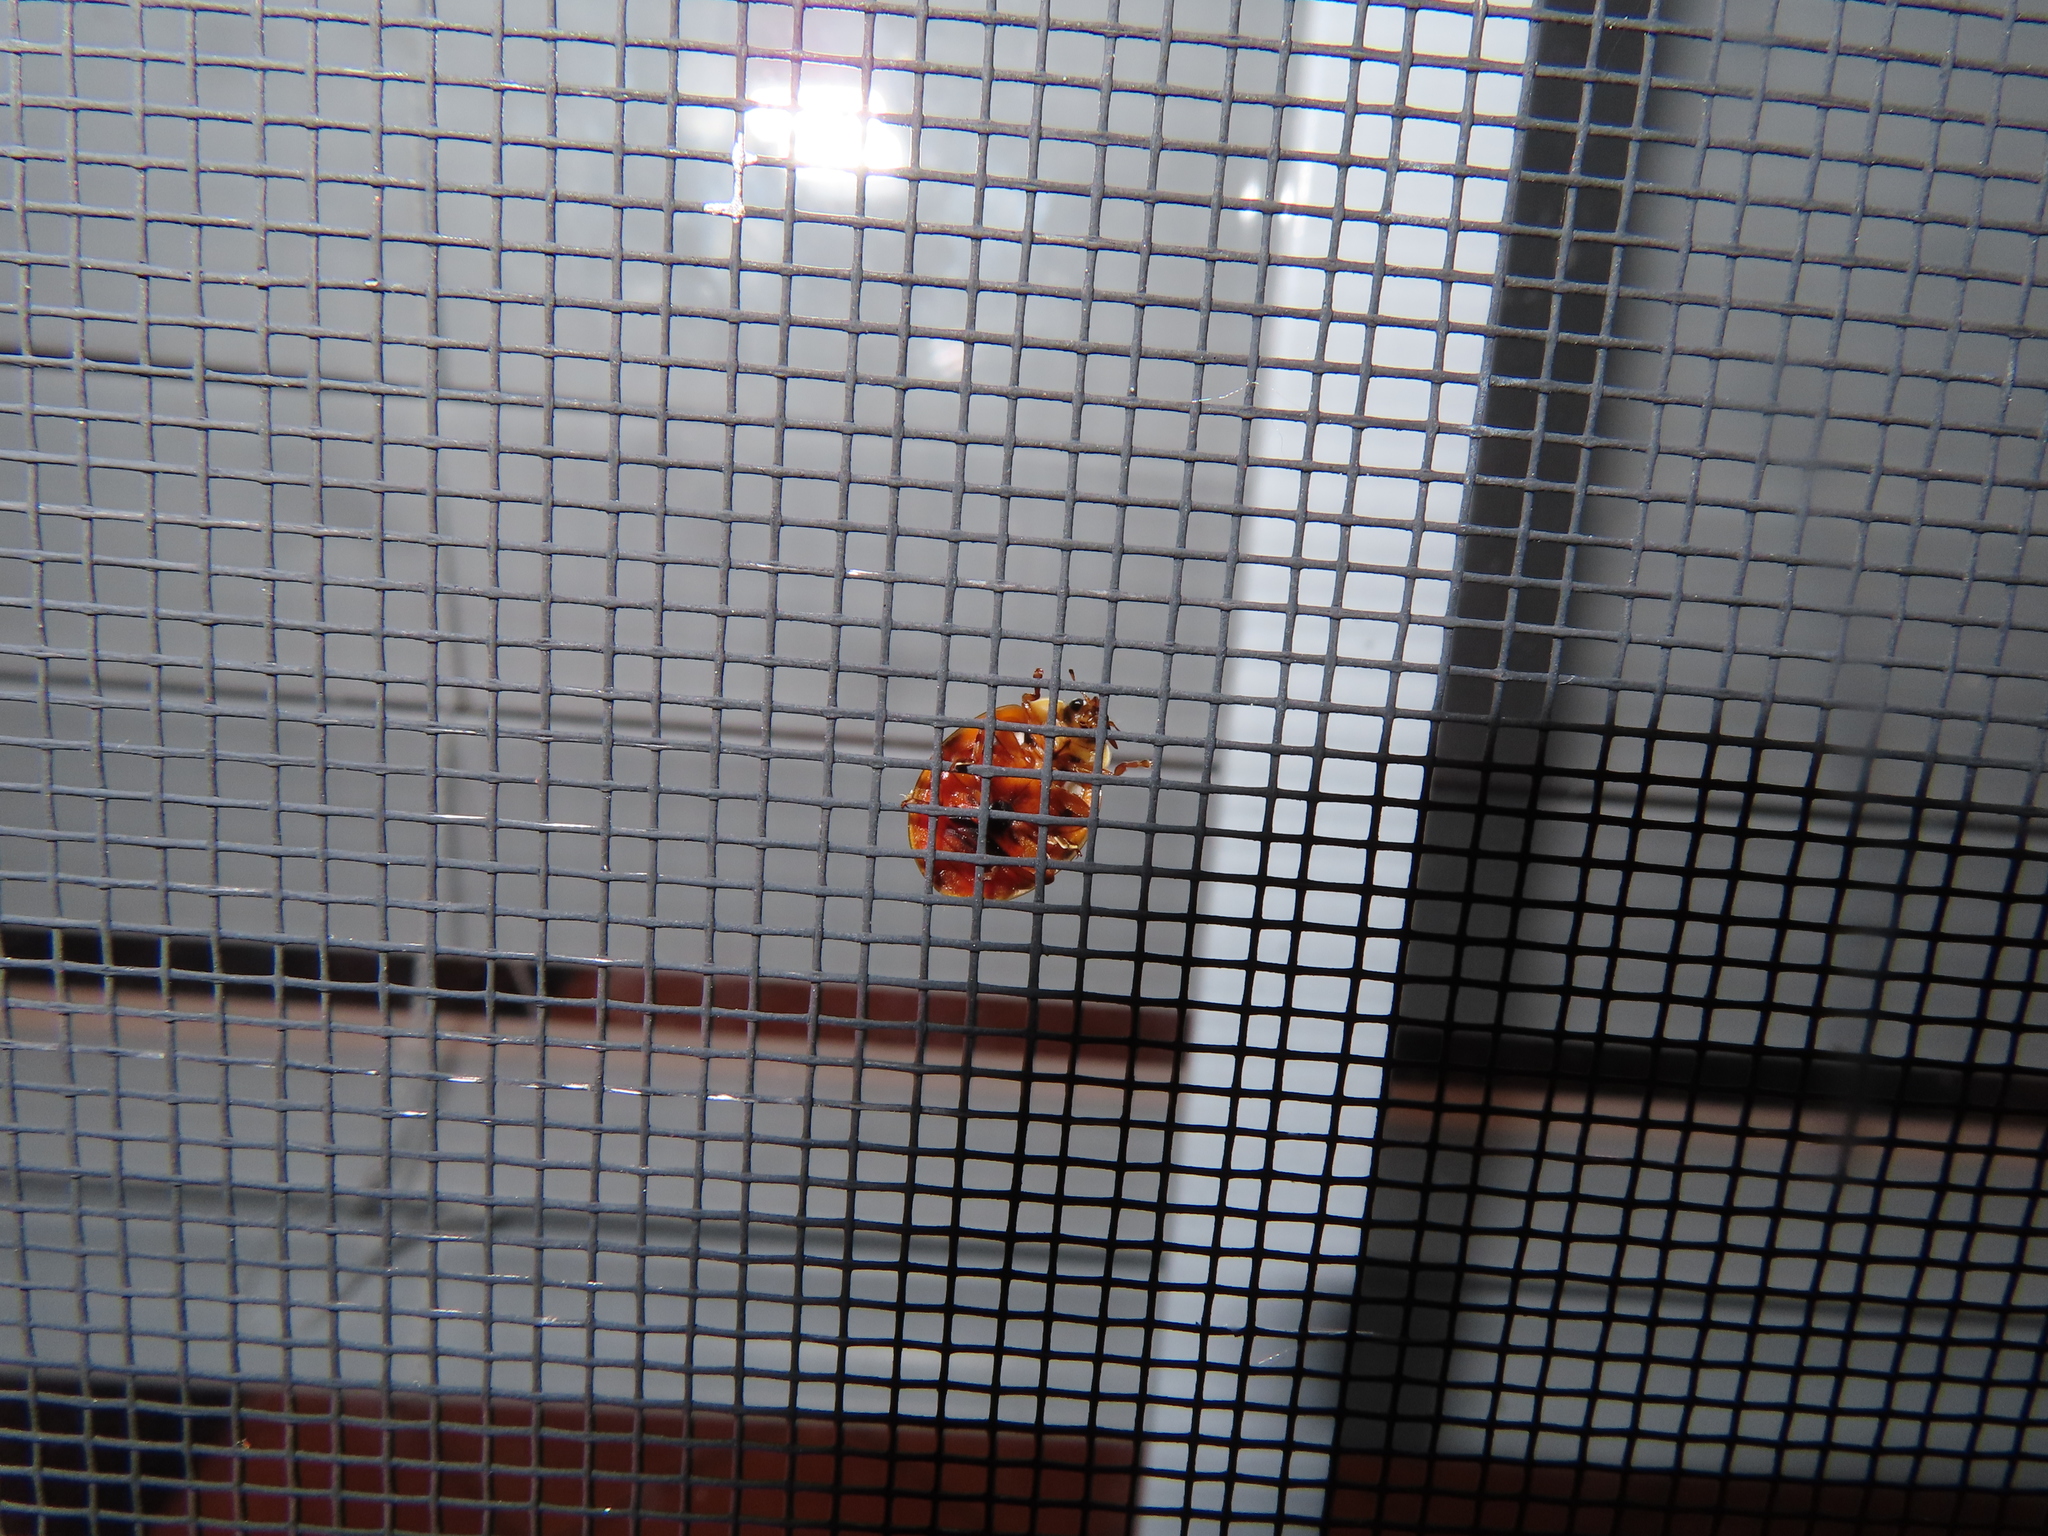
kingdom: Animalia
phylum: Arthropoda
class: Insecta
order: Coleoptera
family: Coccinellidae
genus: Harmonia
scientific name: Harmonia axyridis
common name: Harlequin ladybird
